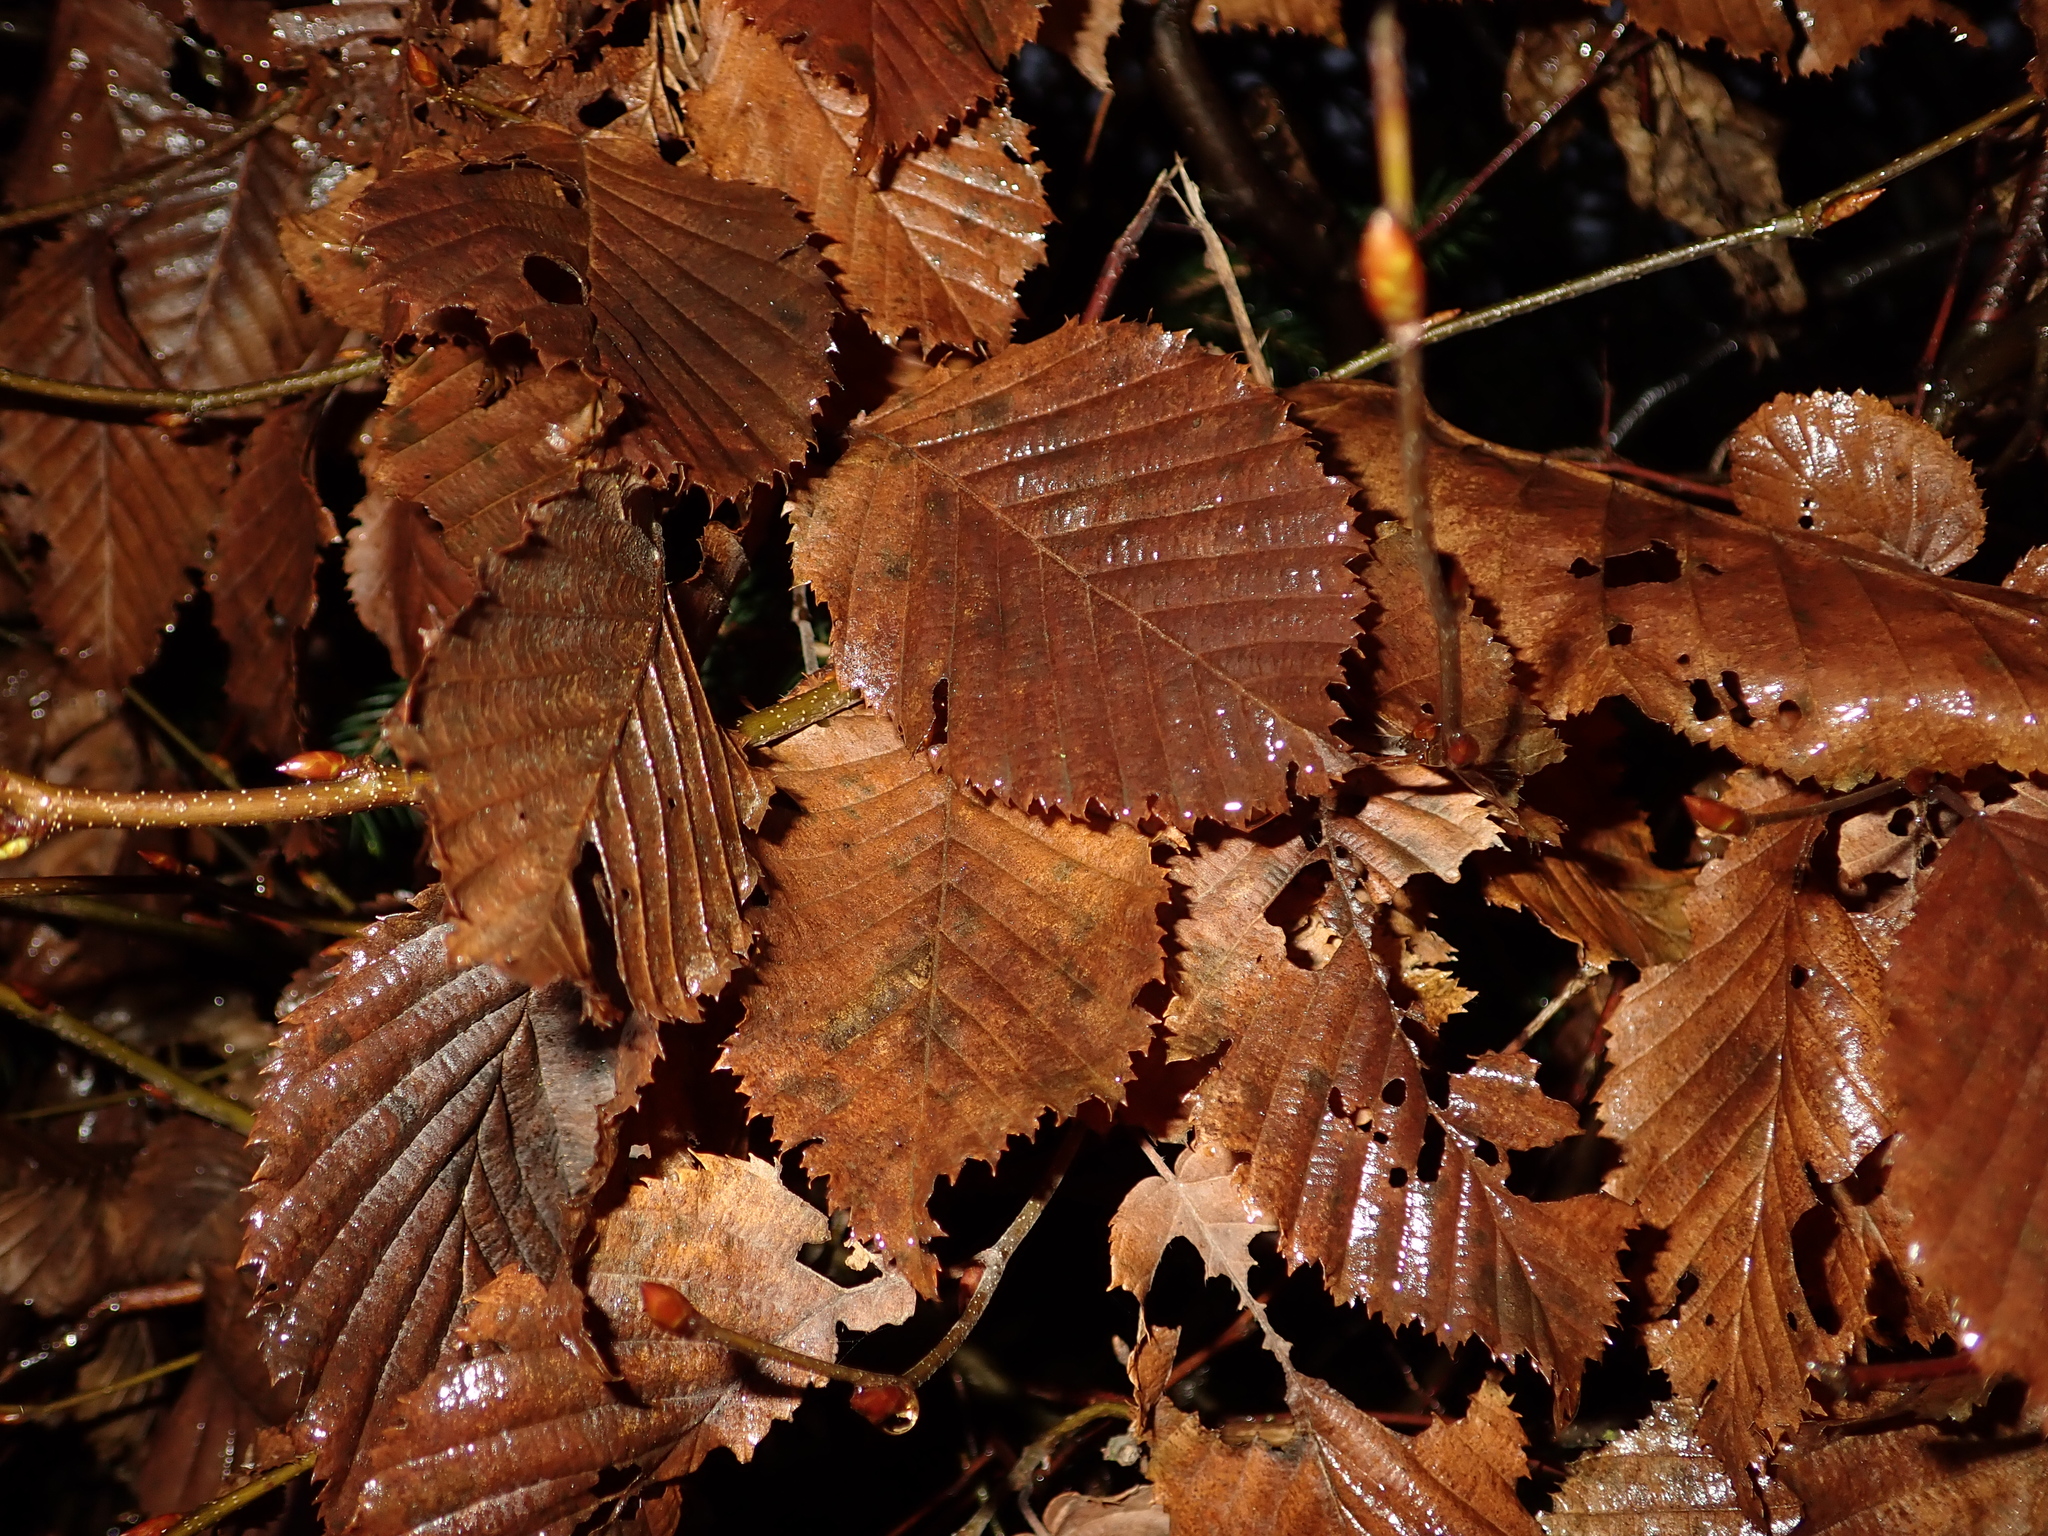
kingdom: Plantae
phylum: Tracheophyta
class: Magnoliopsida
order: Fagales
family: Betulaceae
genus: Carpinus
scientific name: Carpinus betulus
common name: Hornbeam
